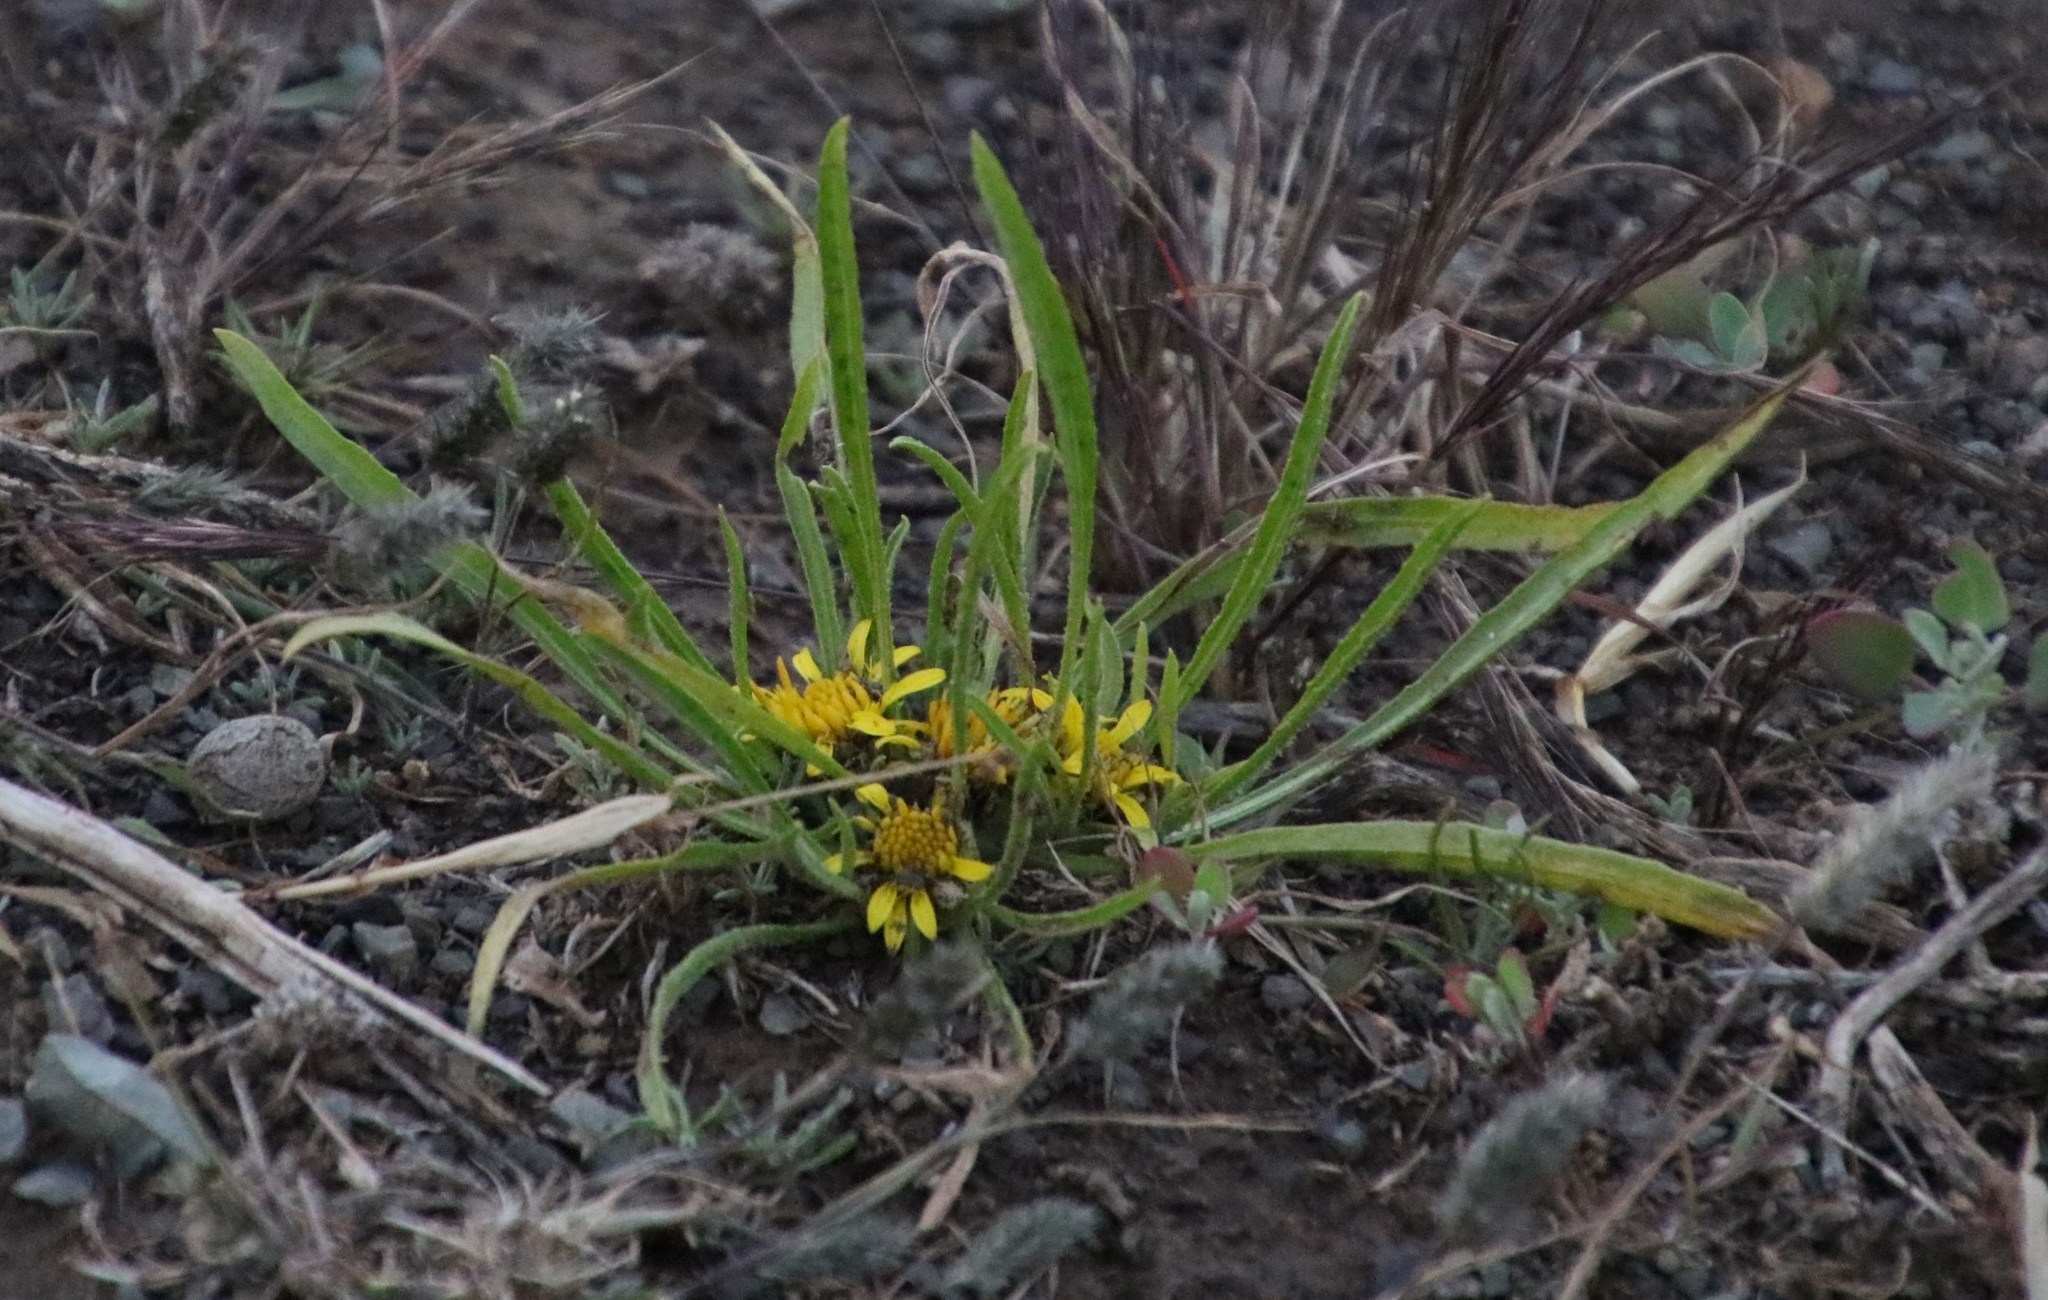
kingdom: Plantae
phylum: Tracheophyta
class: Magnoliopsida
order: Asterales
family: Asteraceae
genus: Geigeria
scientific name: Geigeria ornativa
